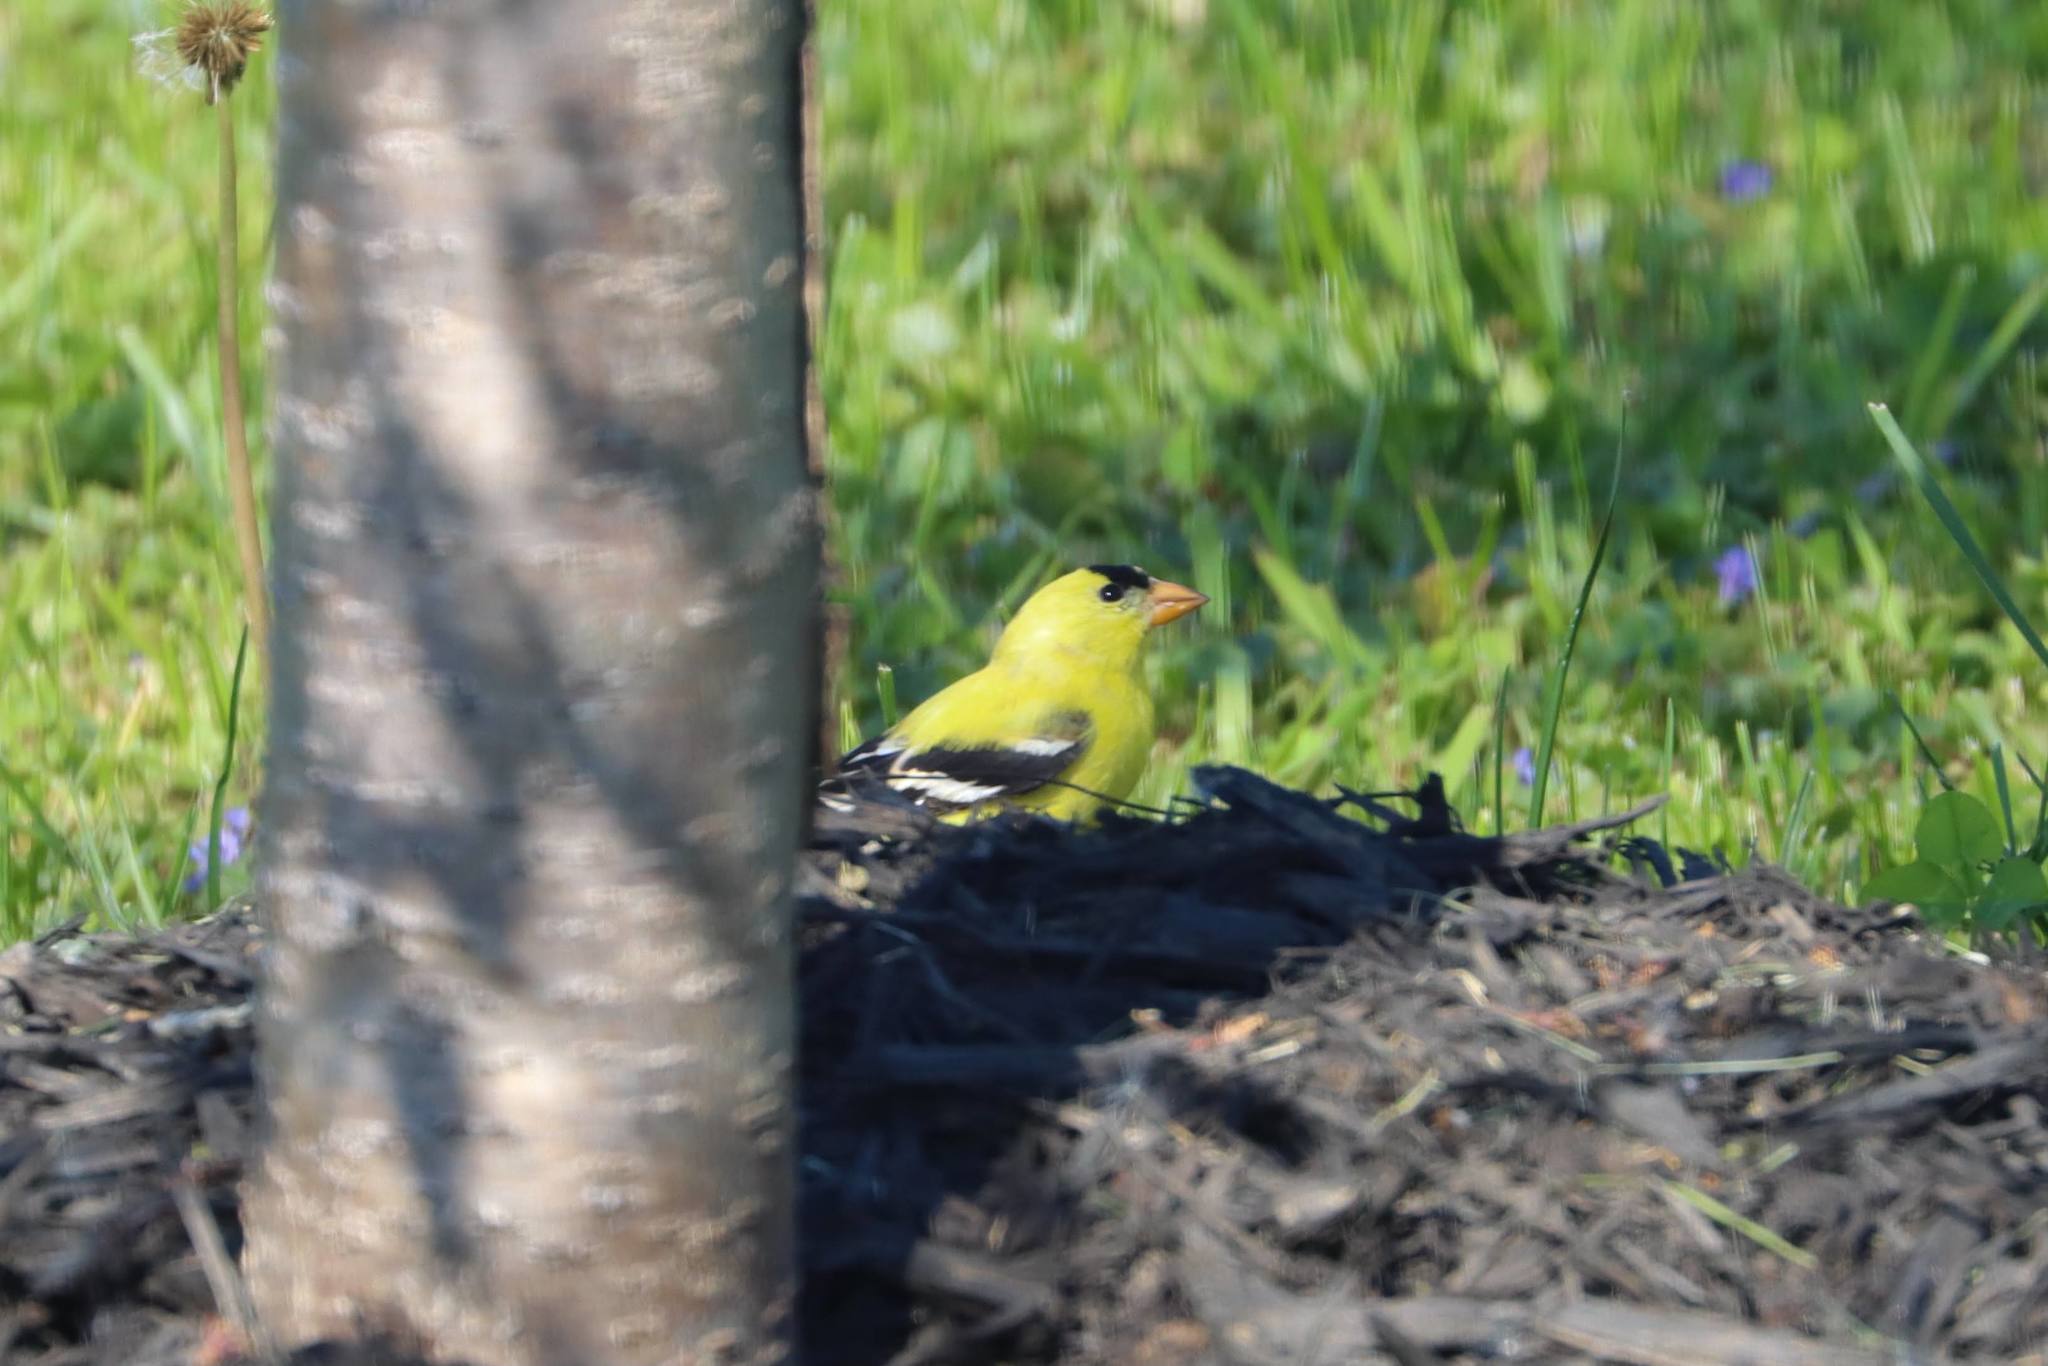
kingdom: Animalia
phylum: Chordata
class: Aves
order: Passeriformes
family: Fringillidae
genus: Spinus
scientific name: Spinus tristis
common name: American goldfinch
